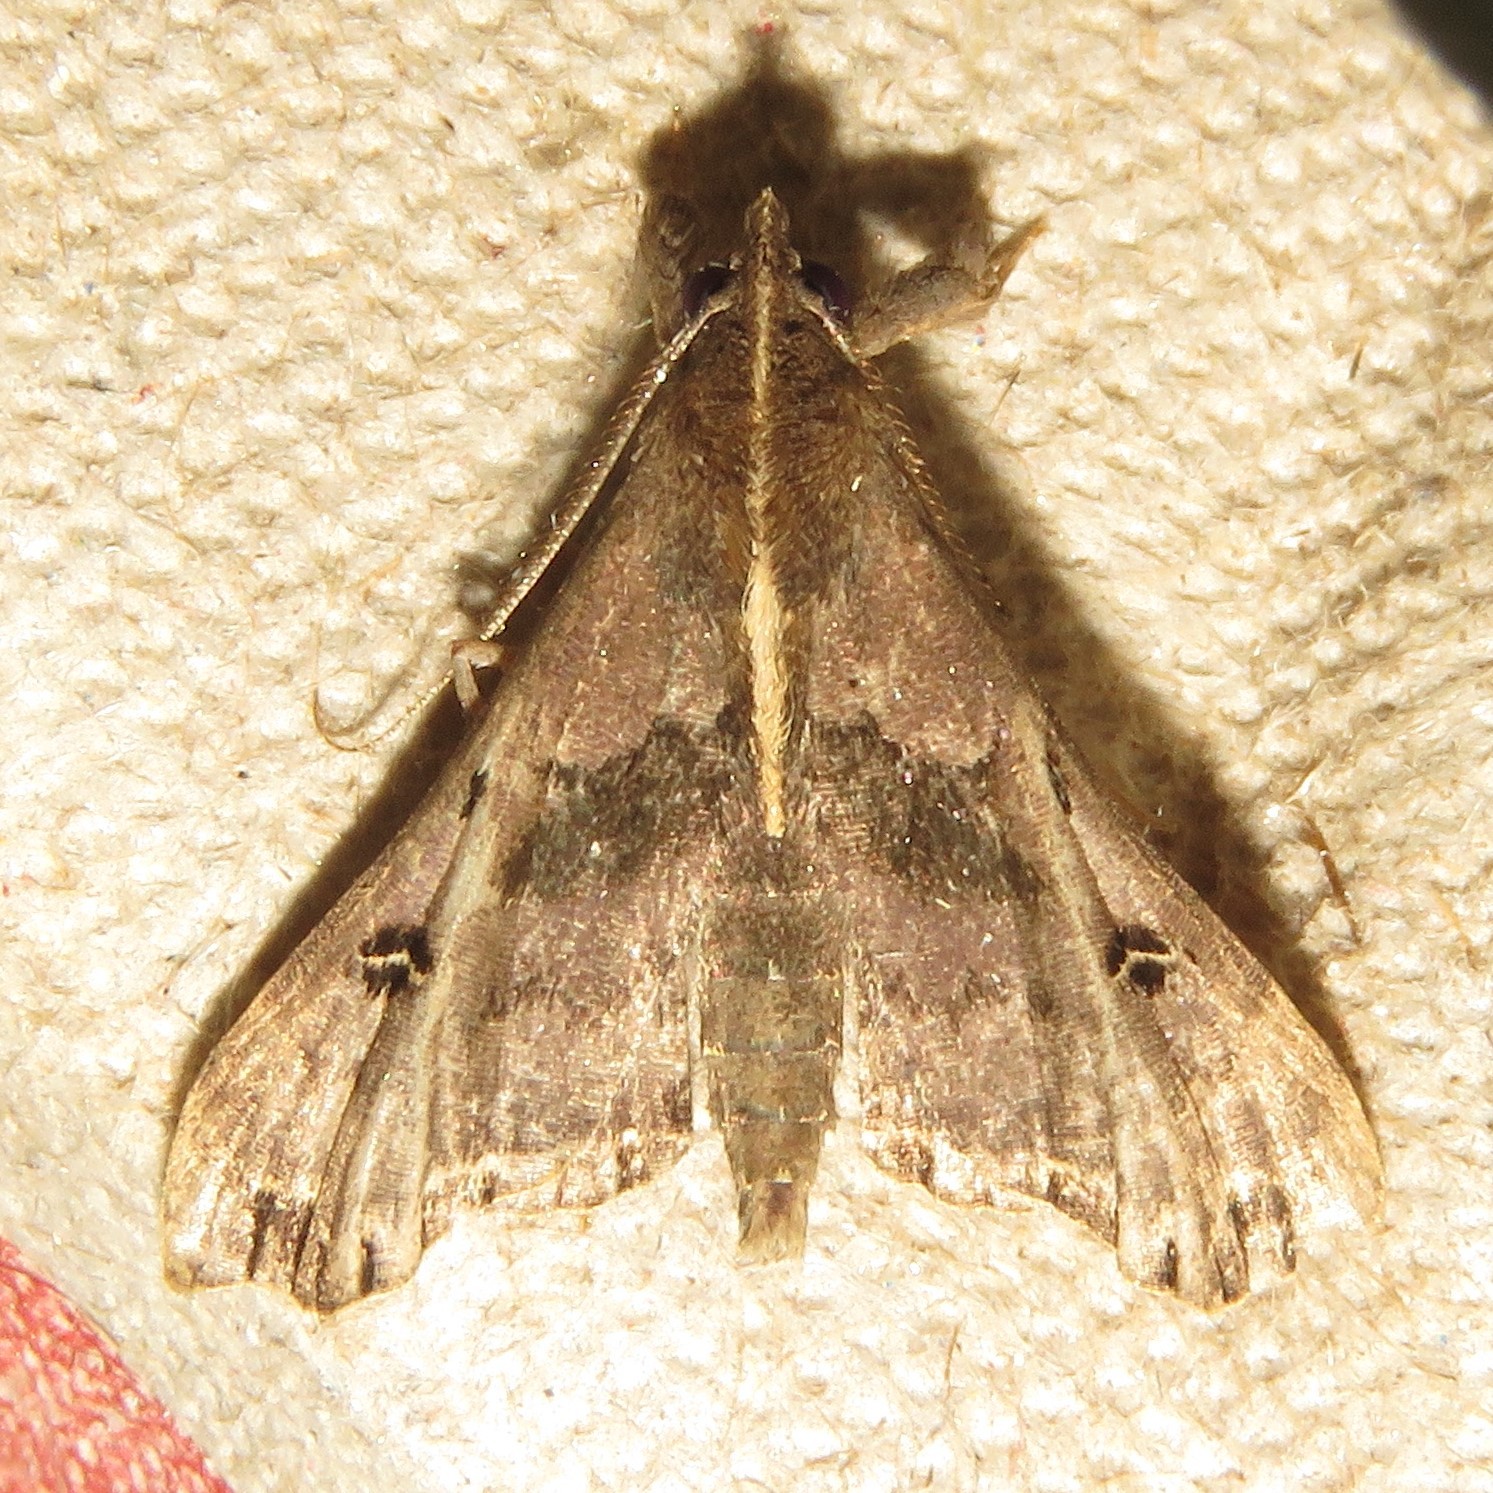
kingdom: Animalia
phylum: Arthropoda
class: Insecta
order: Lepidoptera
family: Erebidae
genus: Palthis
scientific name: Palthis asopialis
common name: Faint-spotted palthis moth
